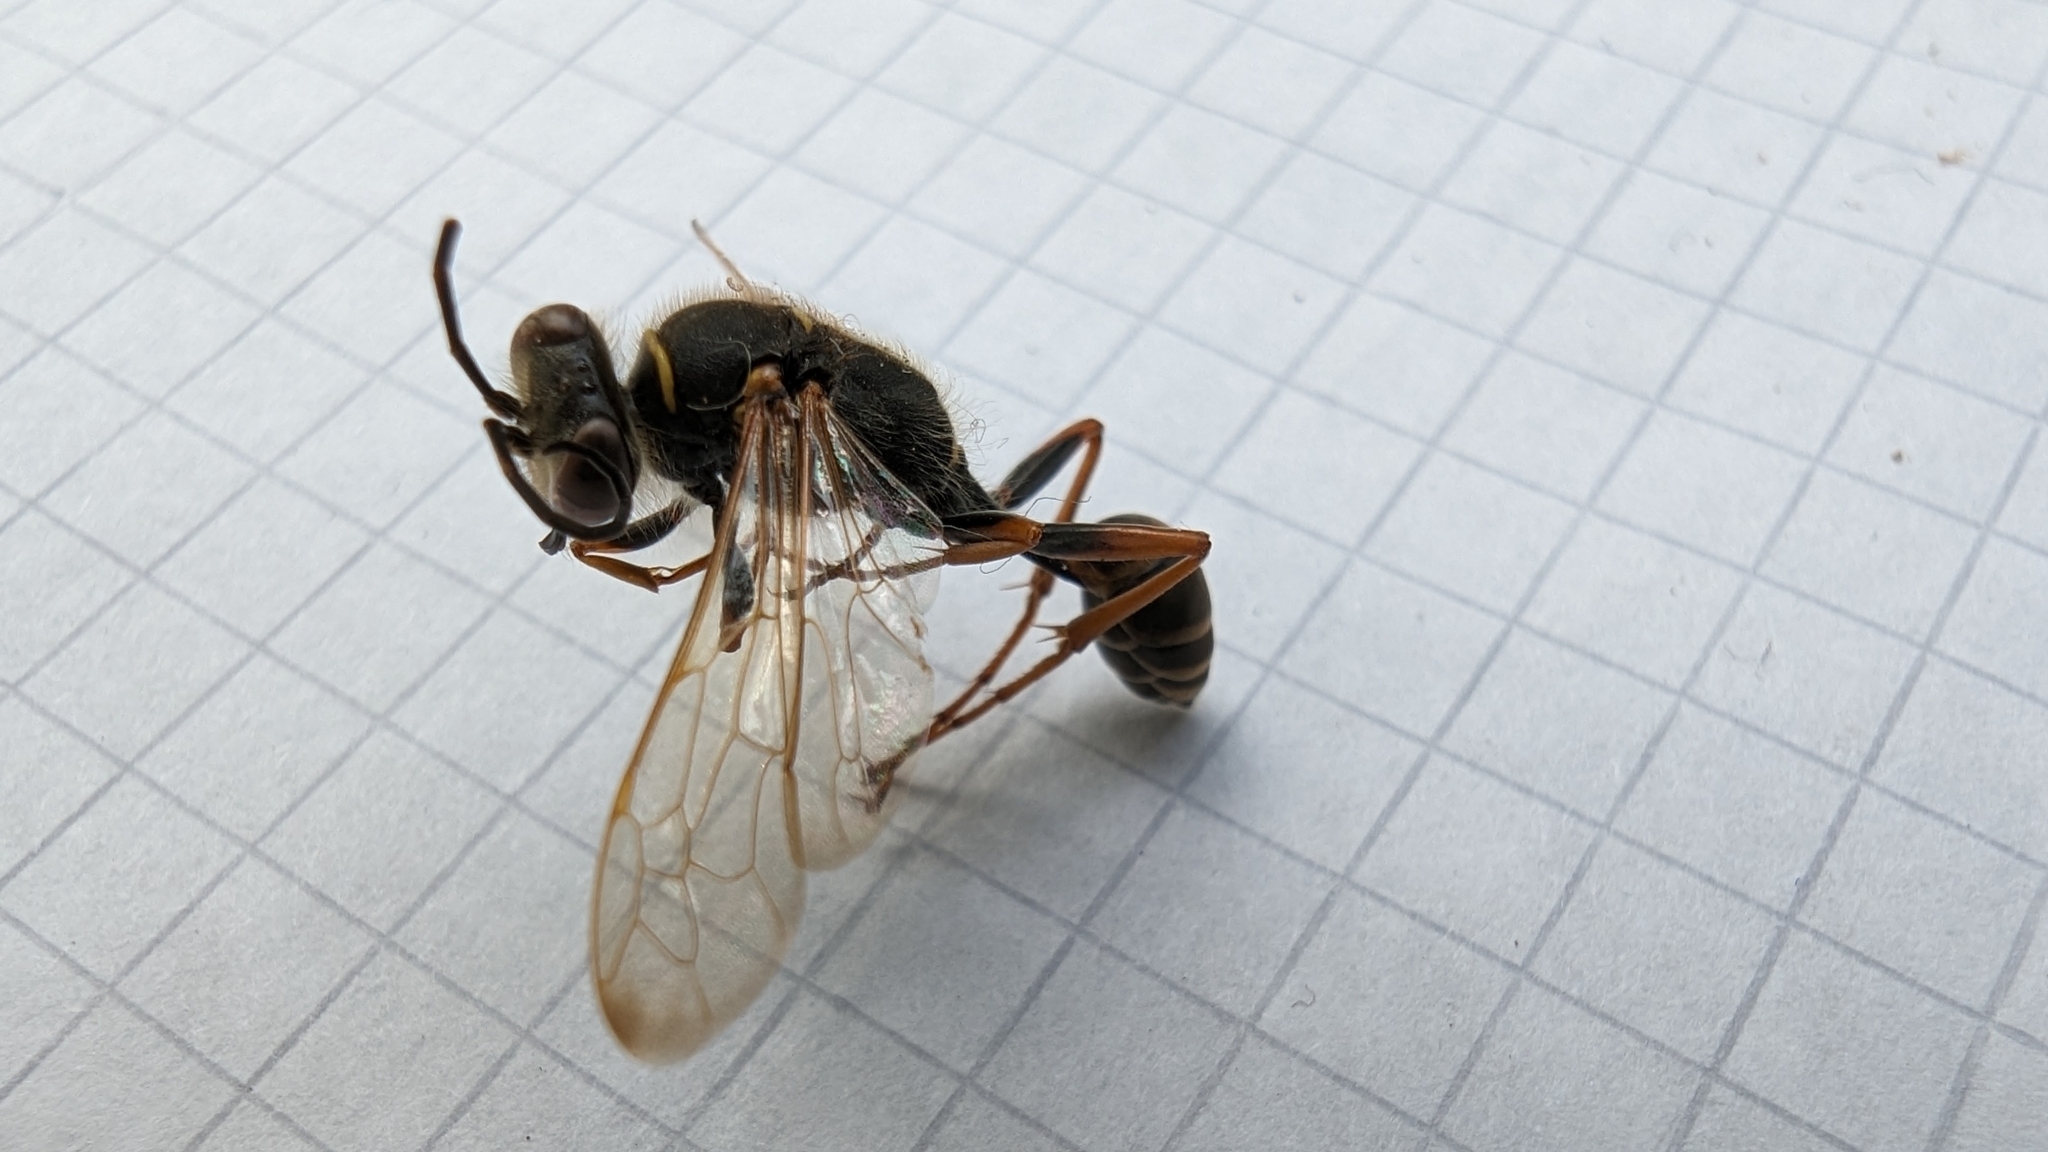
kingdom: Animalia
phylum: Arthropoda
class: Insecta
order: Hymenoptera
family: Sphecidae
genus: Sceliphron
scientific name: Sceliphron curvatum
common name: Pèlopèe
